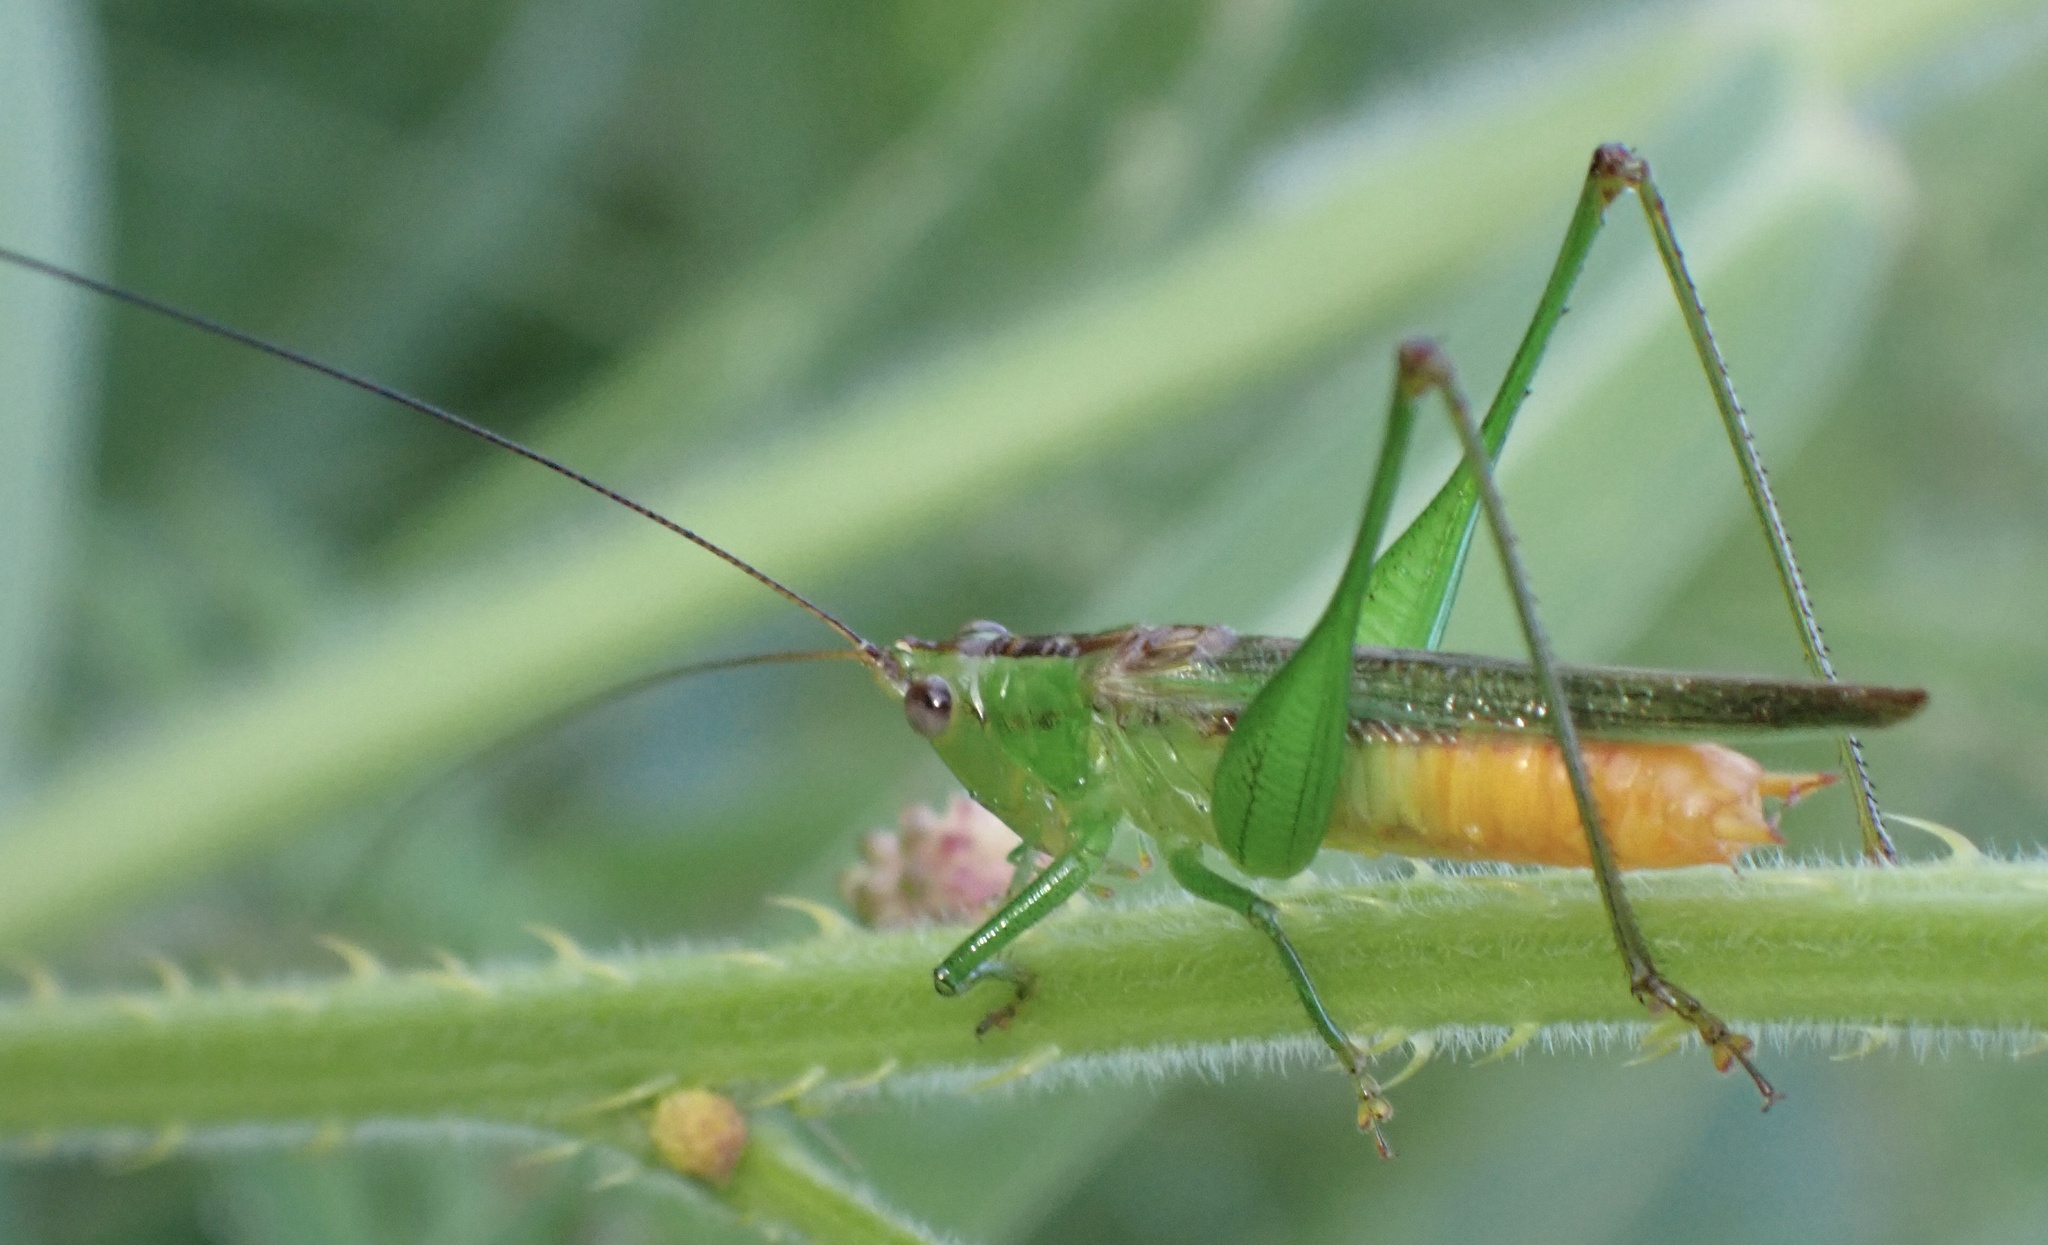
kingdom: Animalia
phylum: Arthropoda
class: Insecta
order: Orthoptera
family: Tettigoniidae
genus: Conocephalus
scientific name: Conocephalus longipennis
